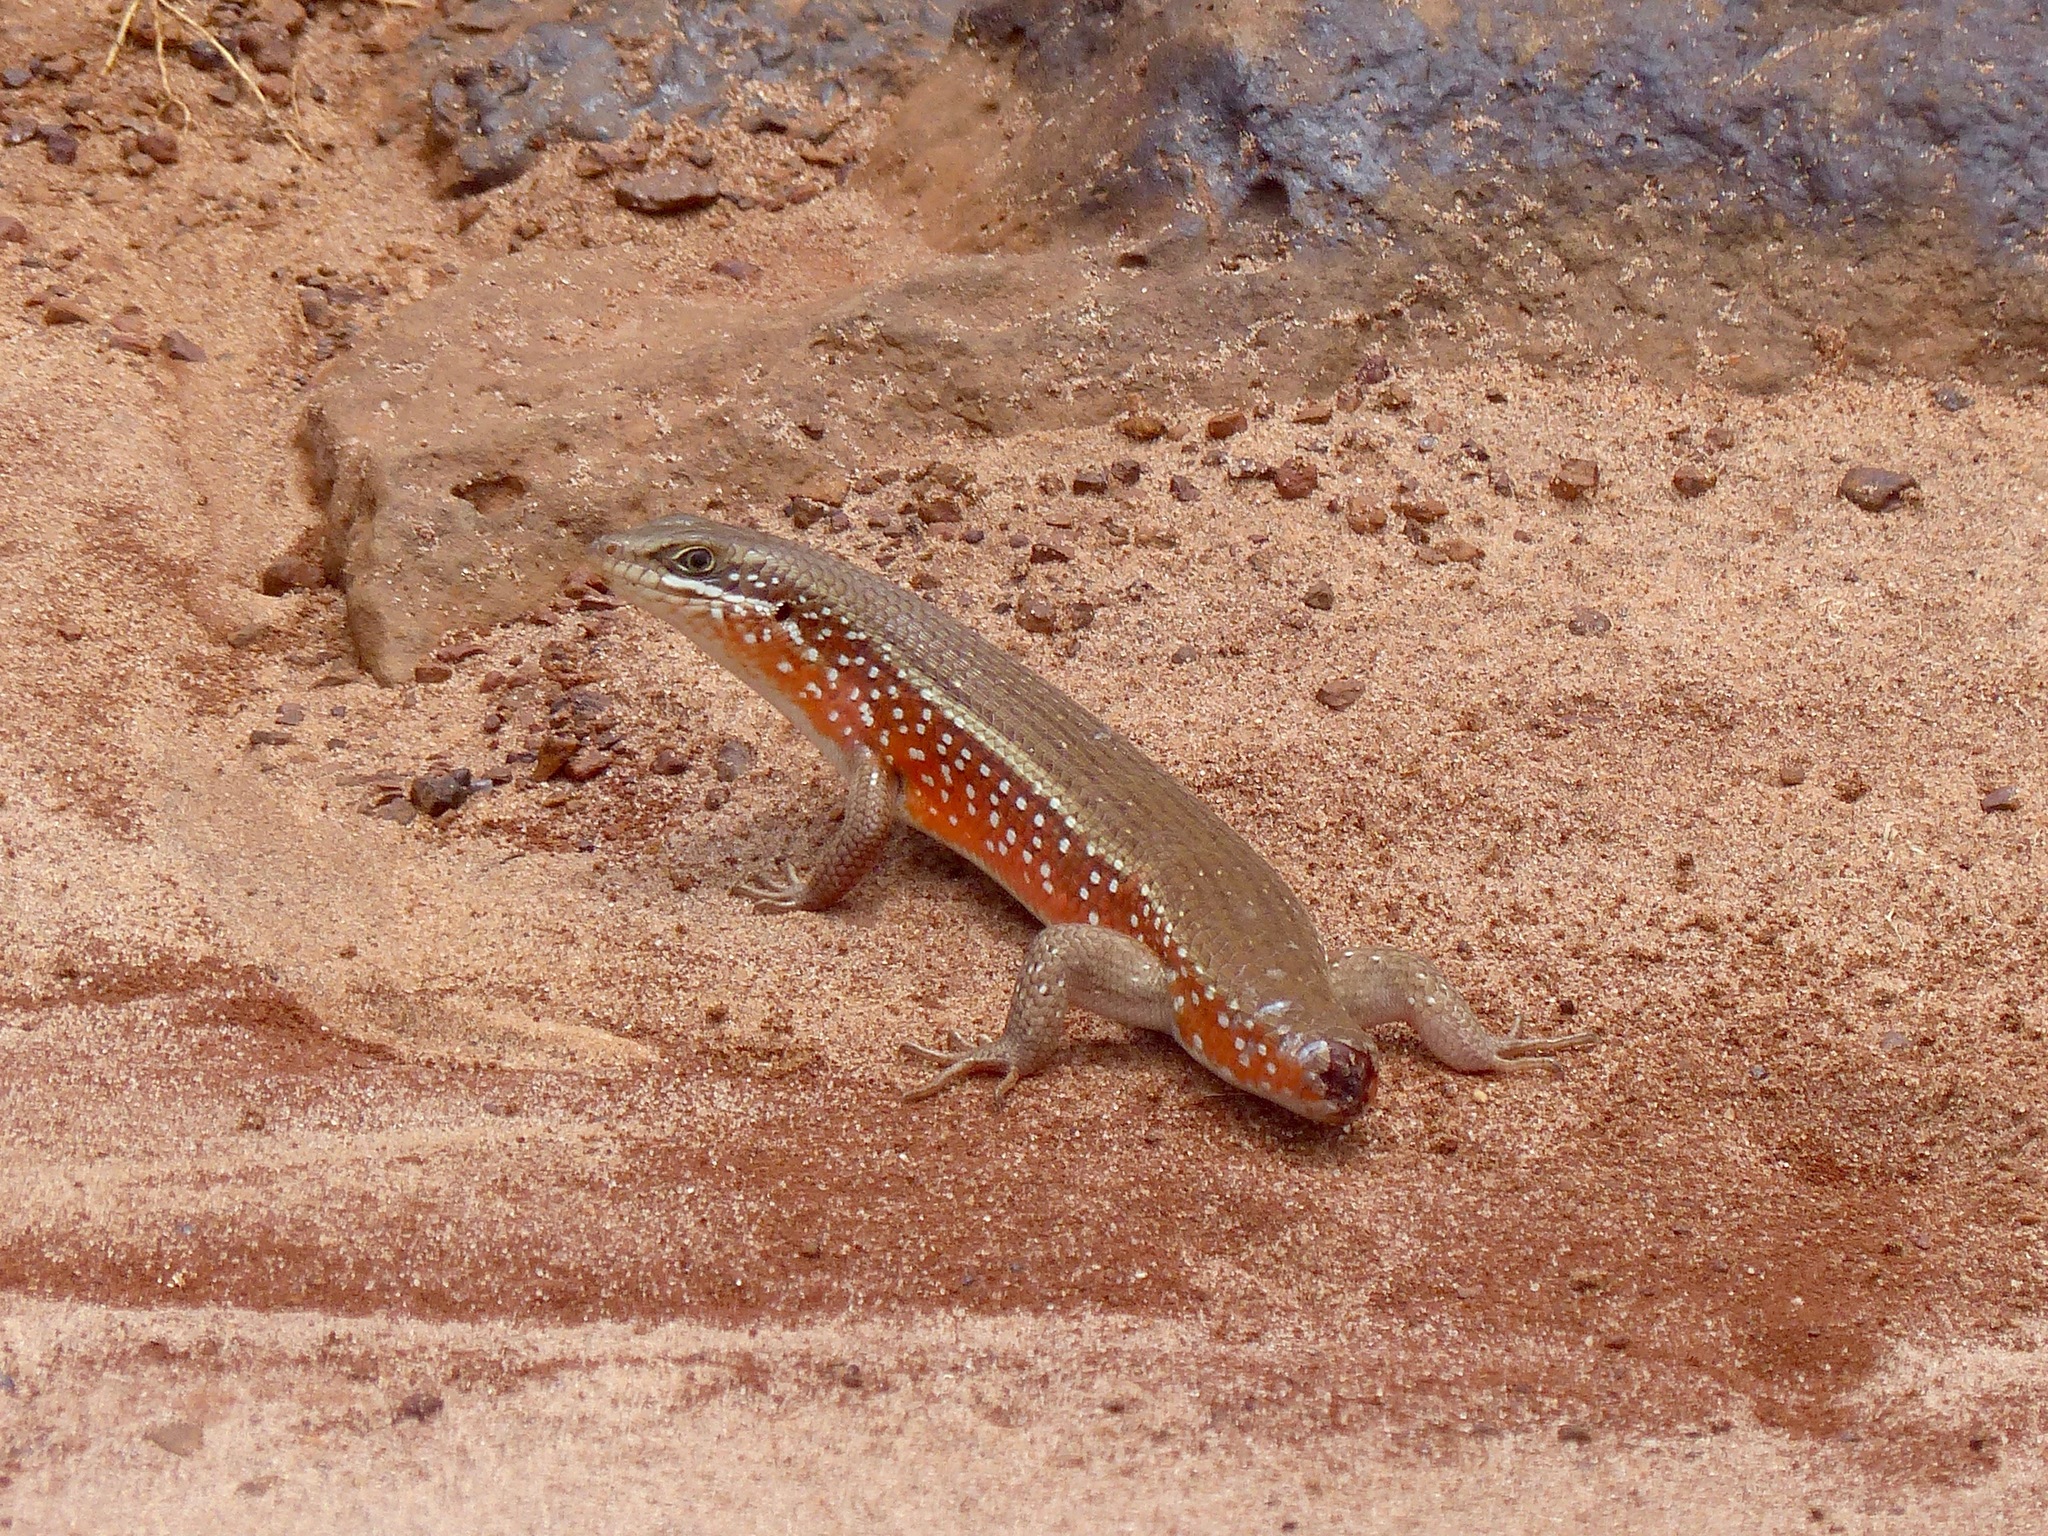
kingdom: Animalia
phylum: Chordata
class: Squamata
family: Scincidae
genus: Trachylepis
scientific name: Trachylepis perrotetii
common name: Teita mabuya
